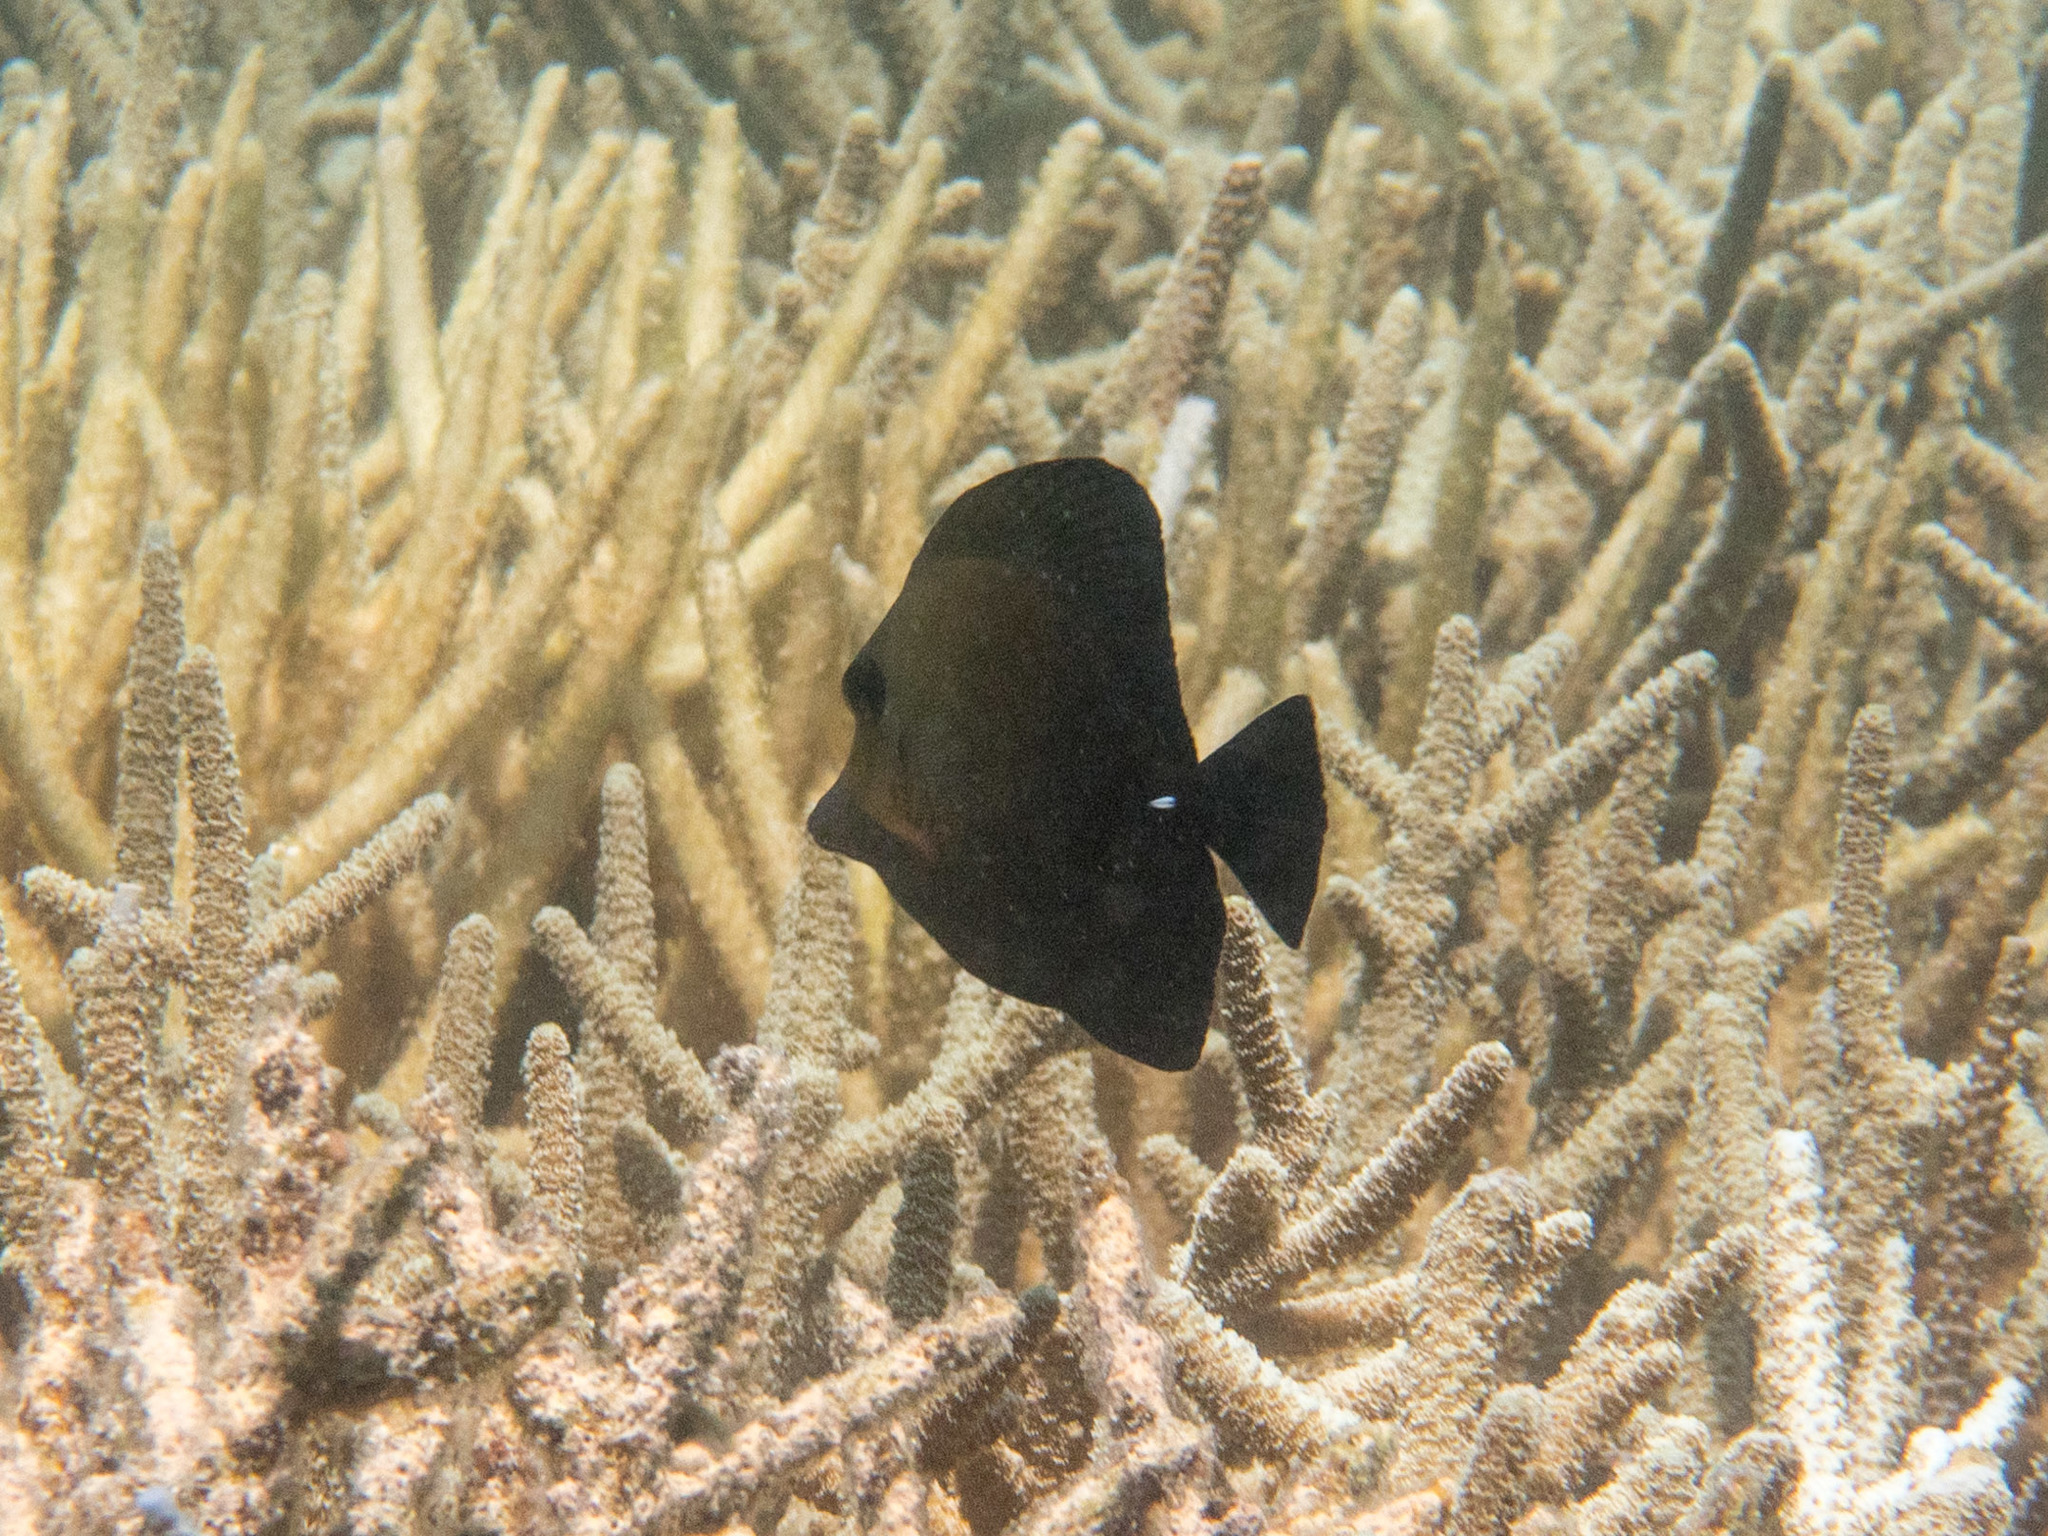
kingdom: Animalia
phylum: Chordata
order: Perciformes
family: Acanthuridae
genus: Zebrasoma
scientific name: Zebrasoma scopas
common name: Twotone tang
